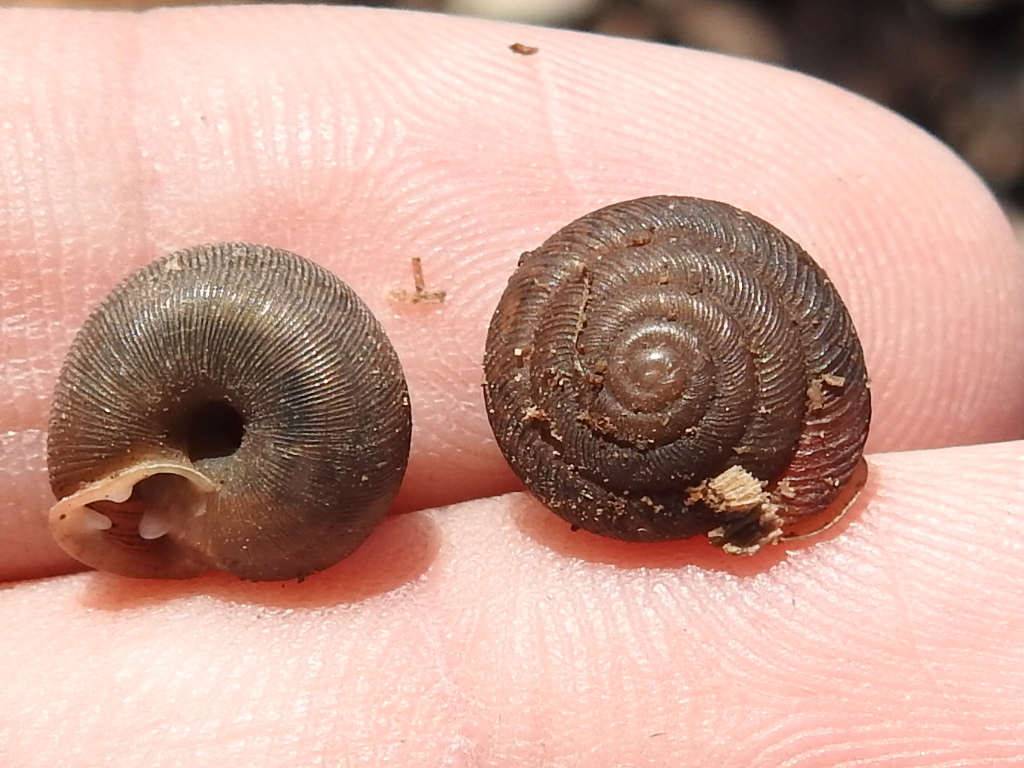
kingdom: Animalia
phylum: Mollusca
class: Gastropoda
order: Stylommatophora
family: Polygyridae
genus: Triodopsis
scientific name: Triodopsis hopetonensis
